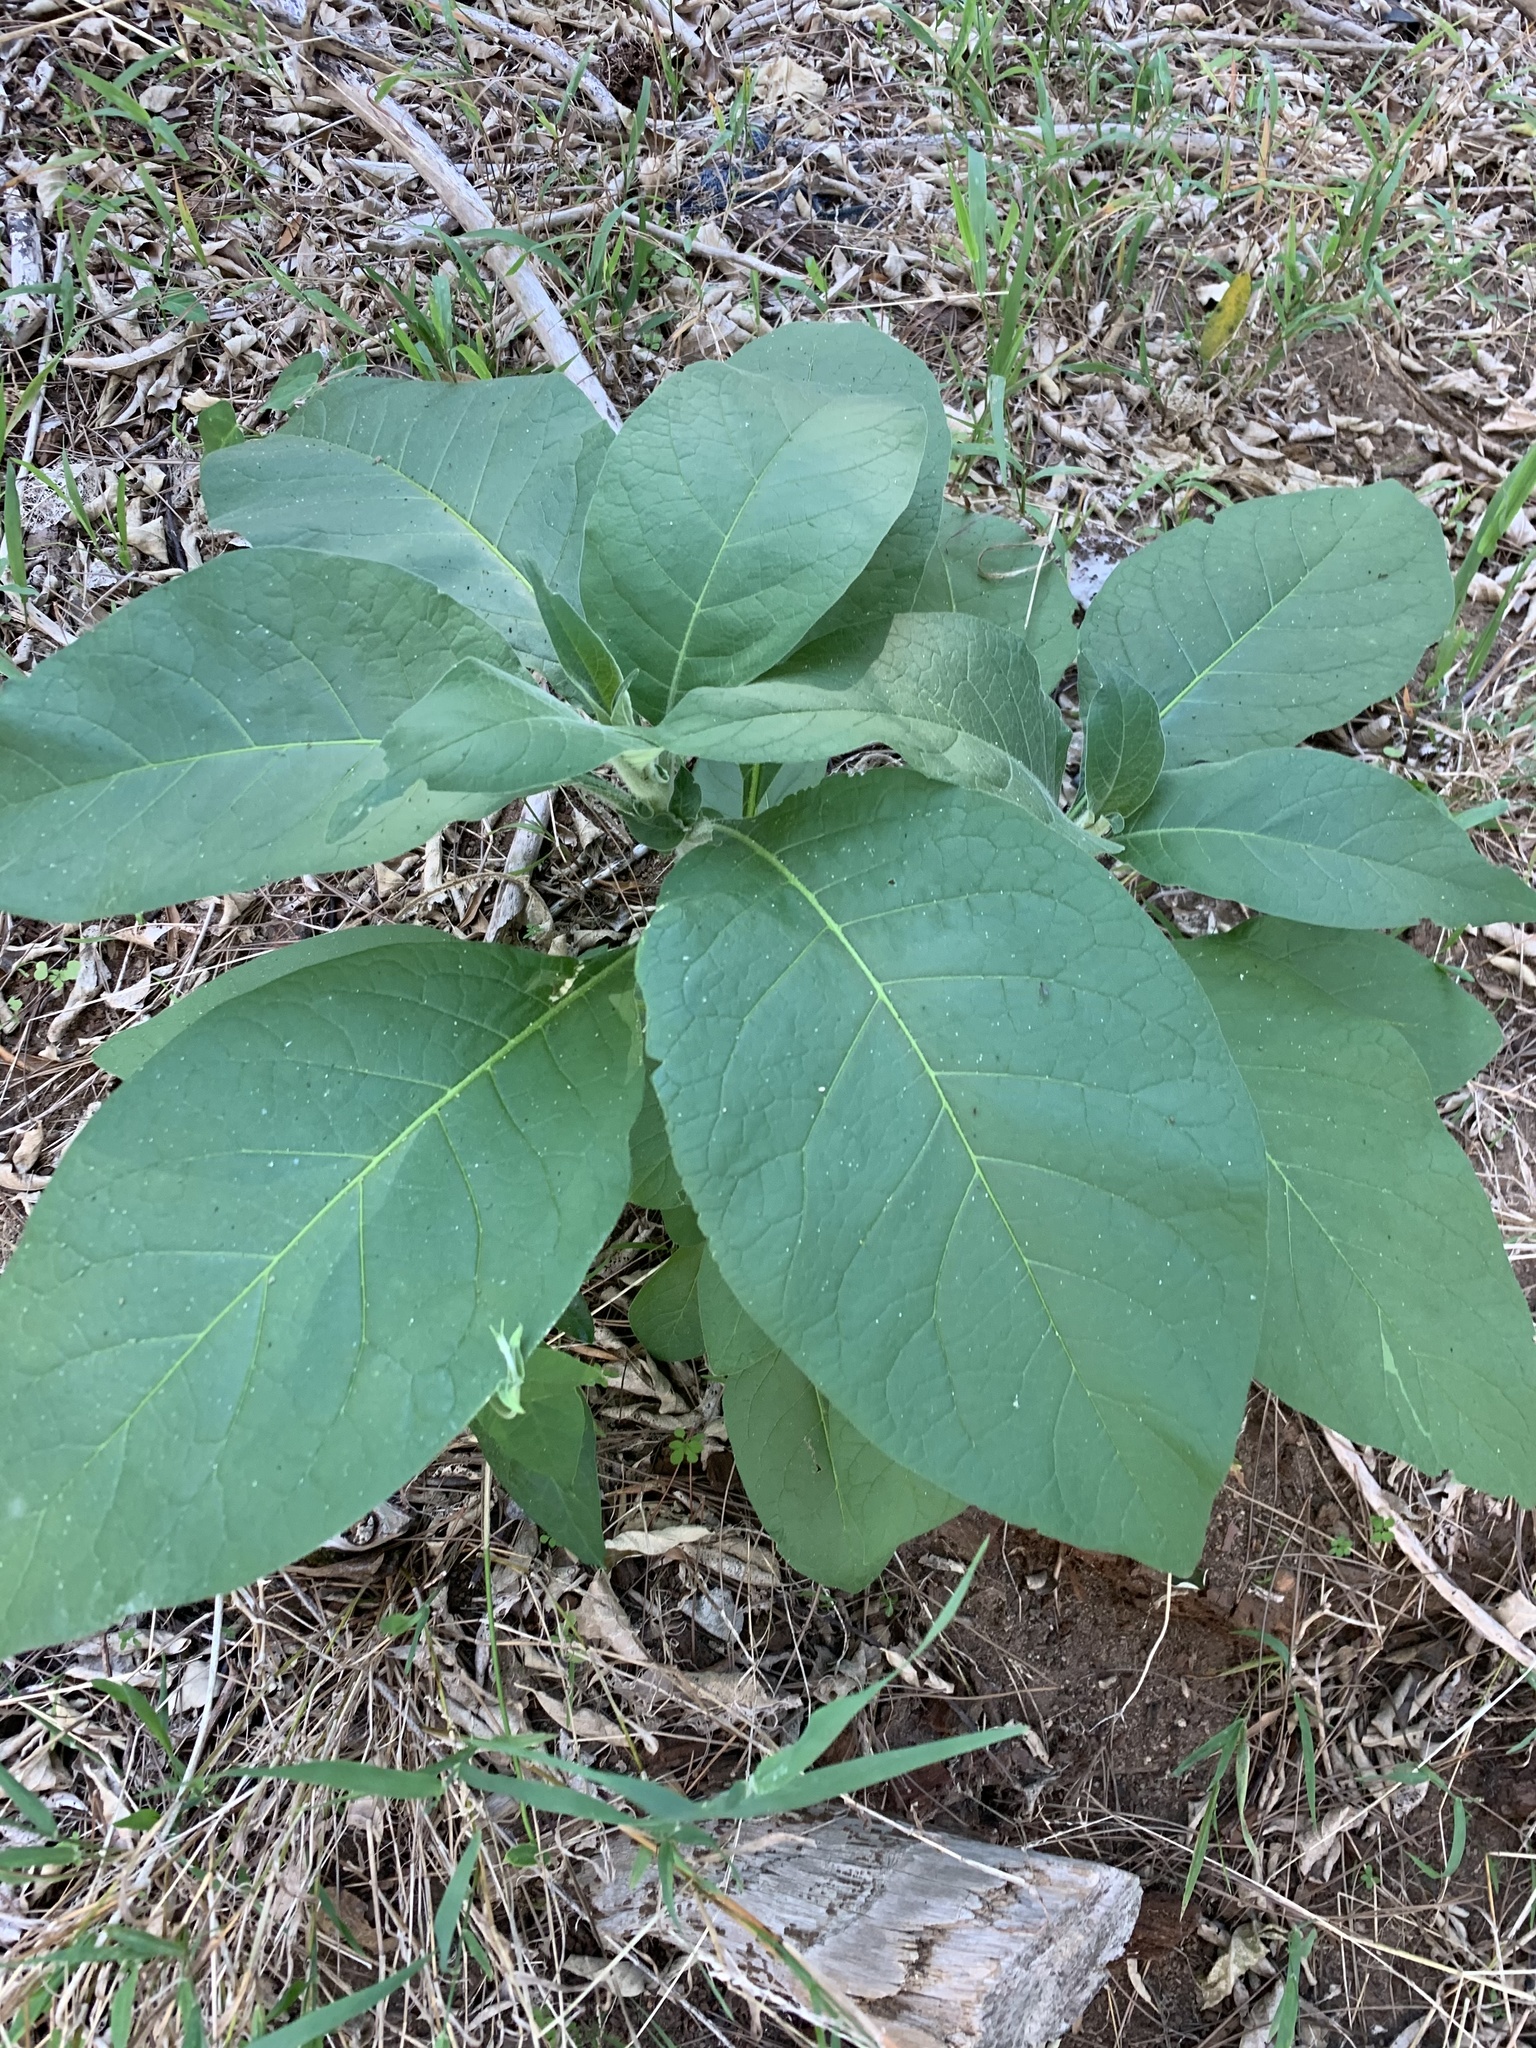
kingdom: Plantae
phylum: Tracheophyta
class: Magnoliopsida
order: Solanales
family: Solanaceae
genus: Solanum
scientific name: Solanum mauritianum
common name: Earleaf nightshade
